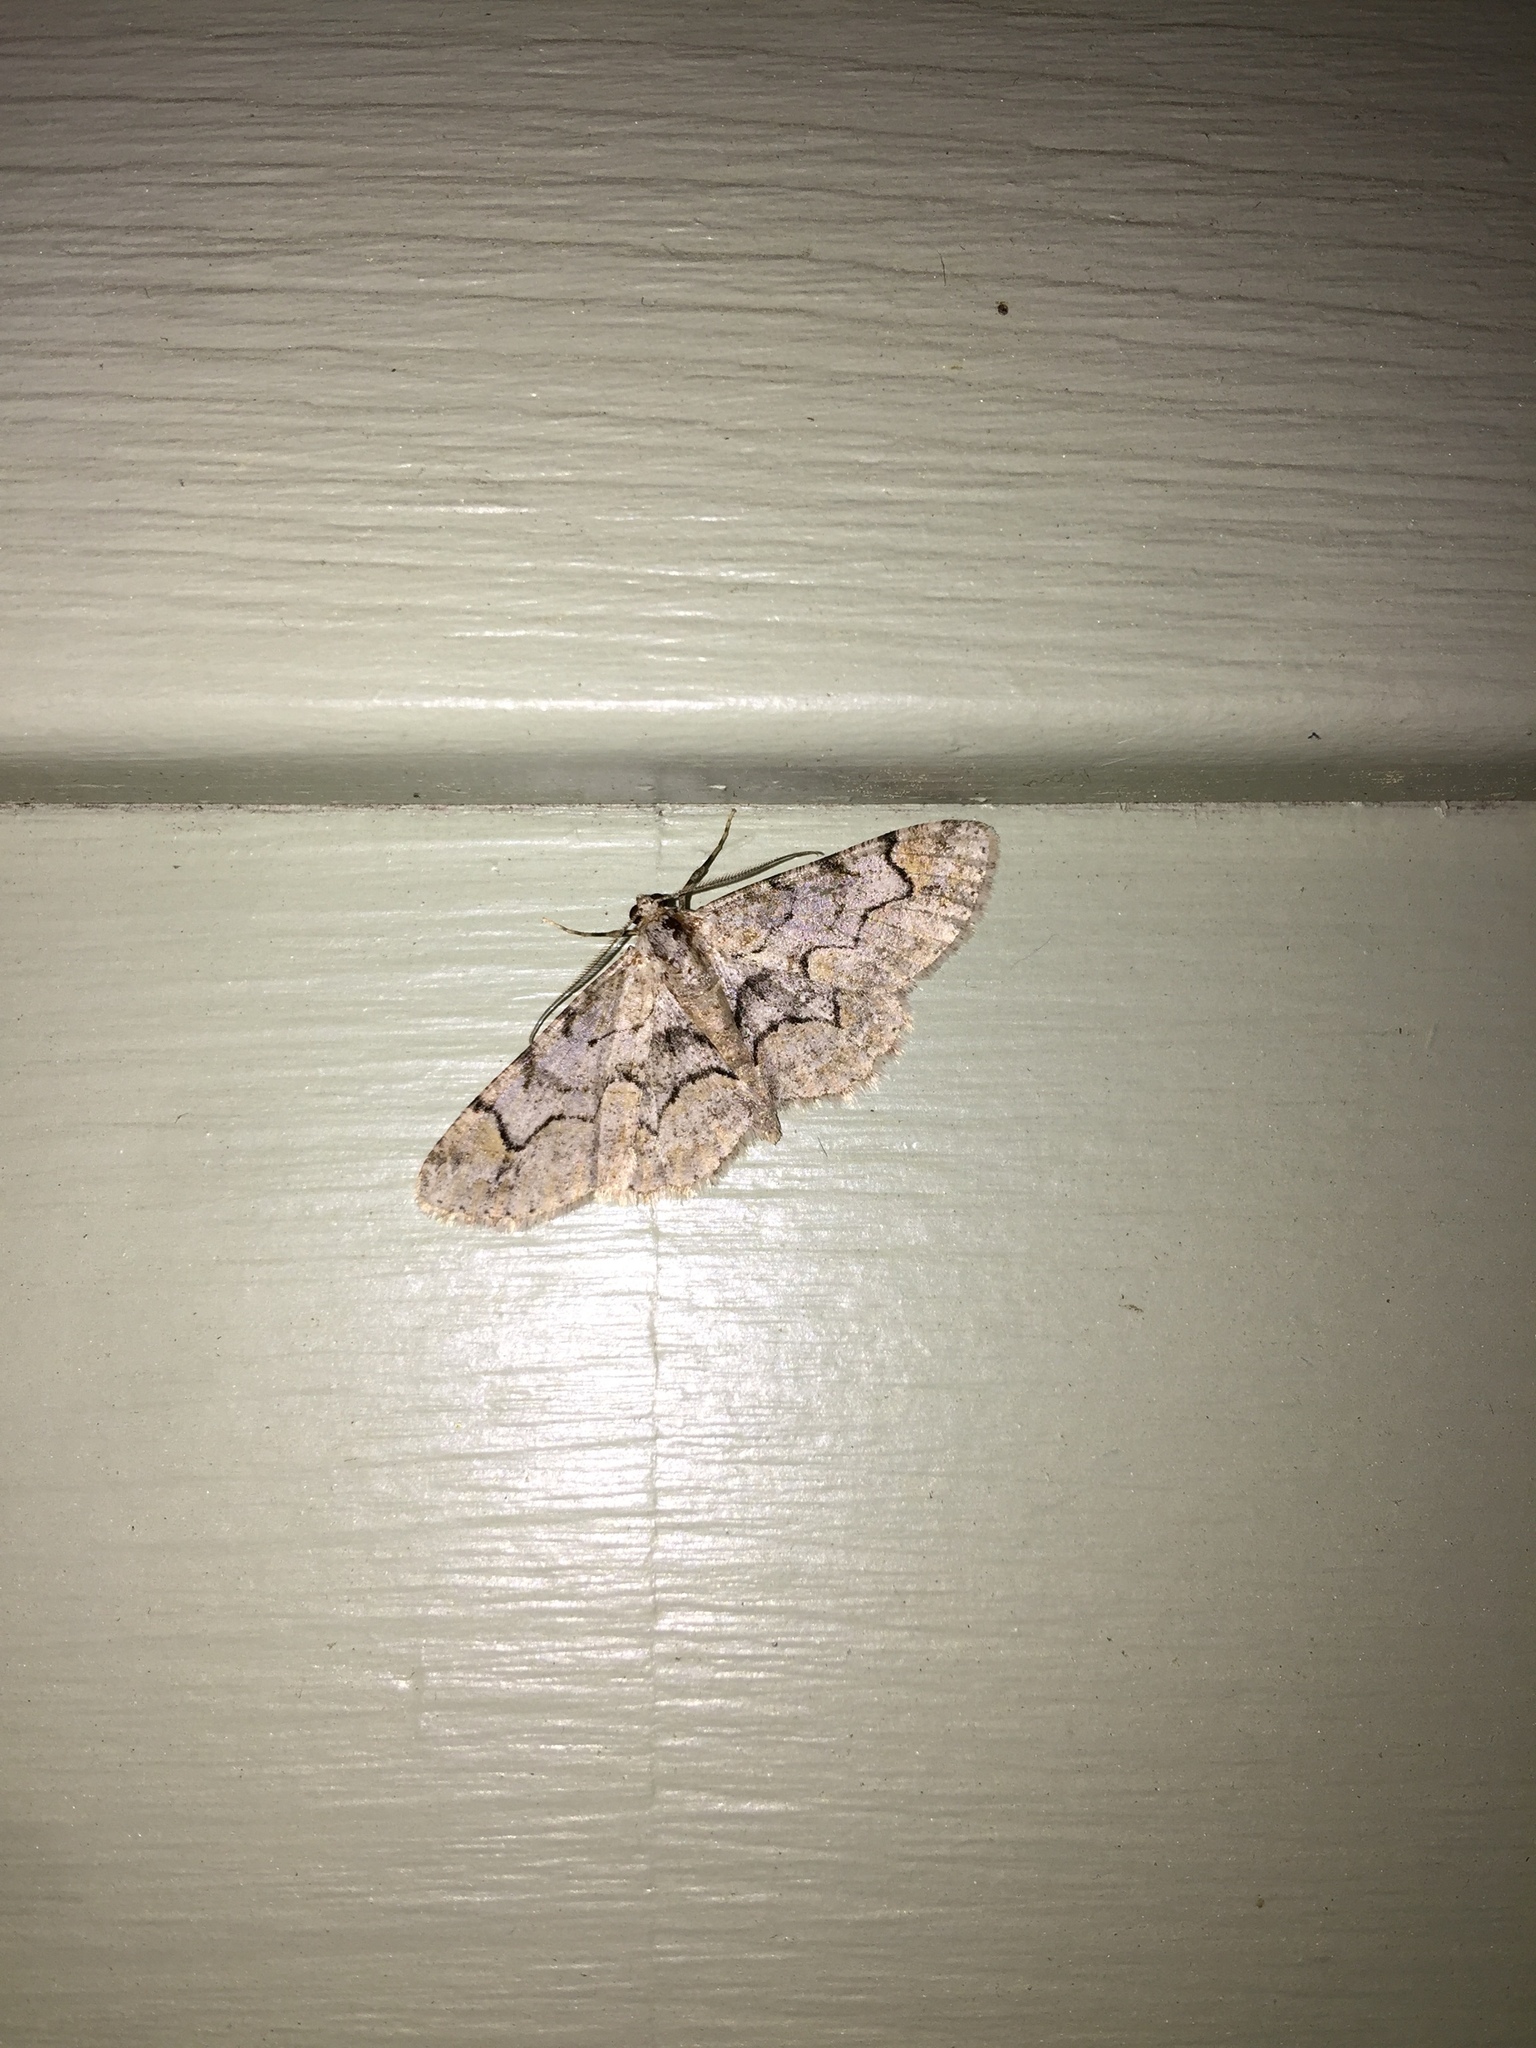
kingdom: Animalia
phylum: Arthropoda
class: Insecta
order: Lepidoptera
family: Geometridae
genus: Iridopsis
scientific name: Iridopsis larvaria
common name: Bent-line gray
